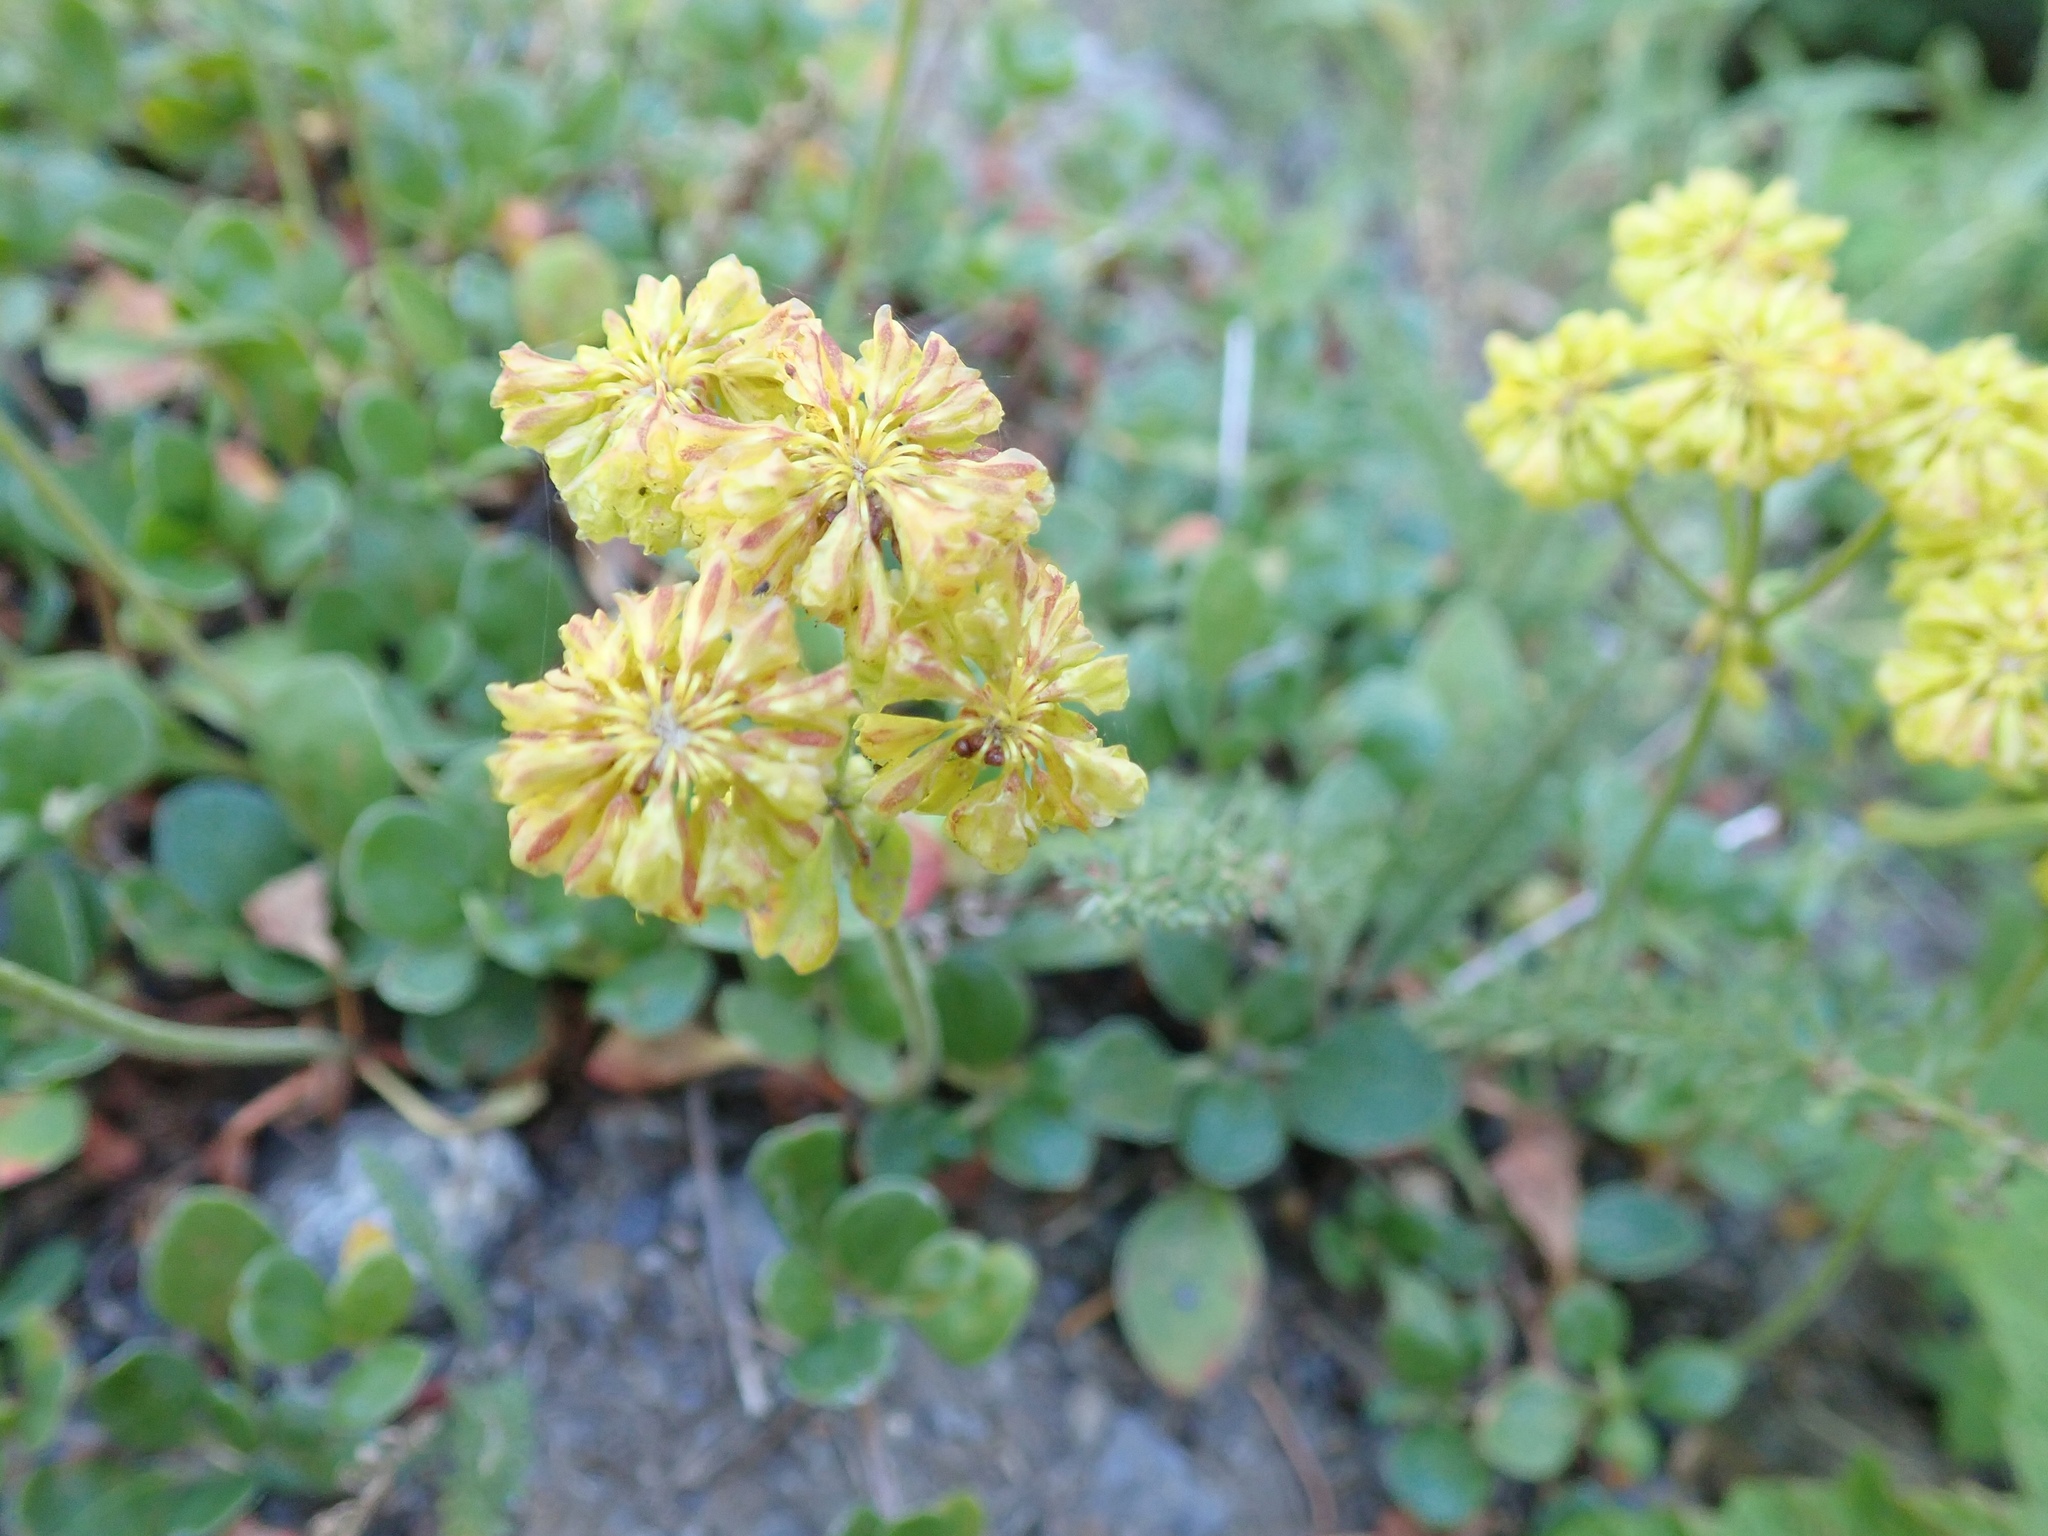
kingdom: Plantae
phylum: Tracheophyta
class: Magnoliopsida
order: Caryophyllales
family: Polygonaceae
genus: Eriogonum
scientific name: Eriogonum umbellatum
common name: Sulfur-buckwheat
